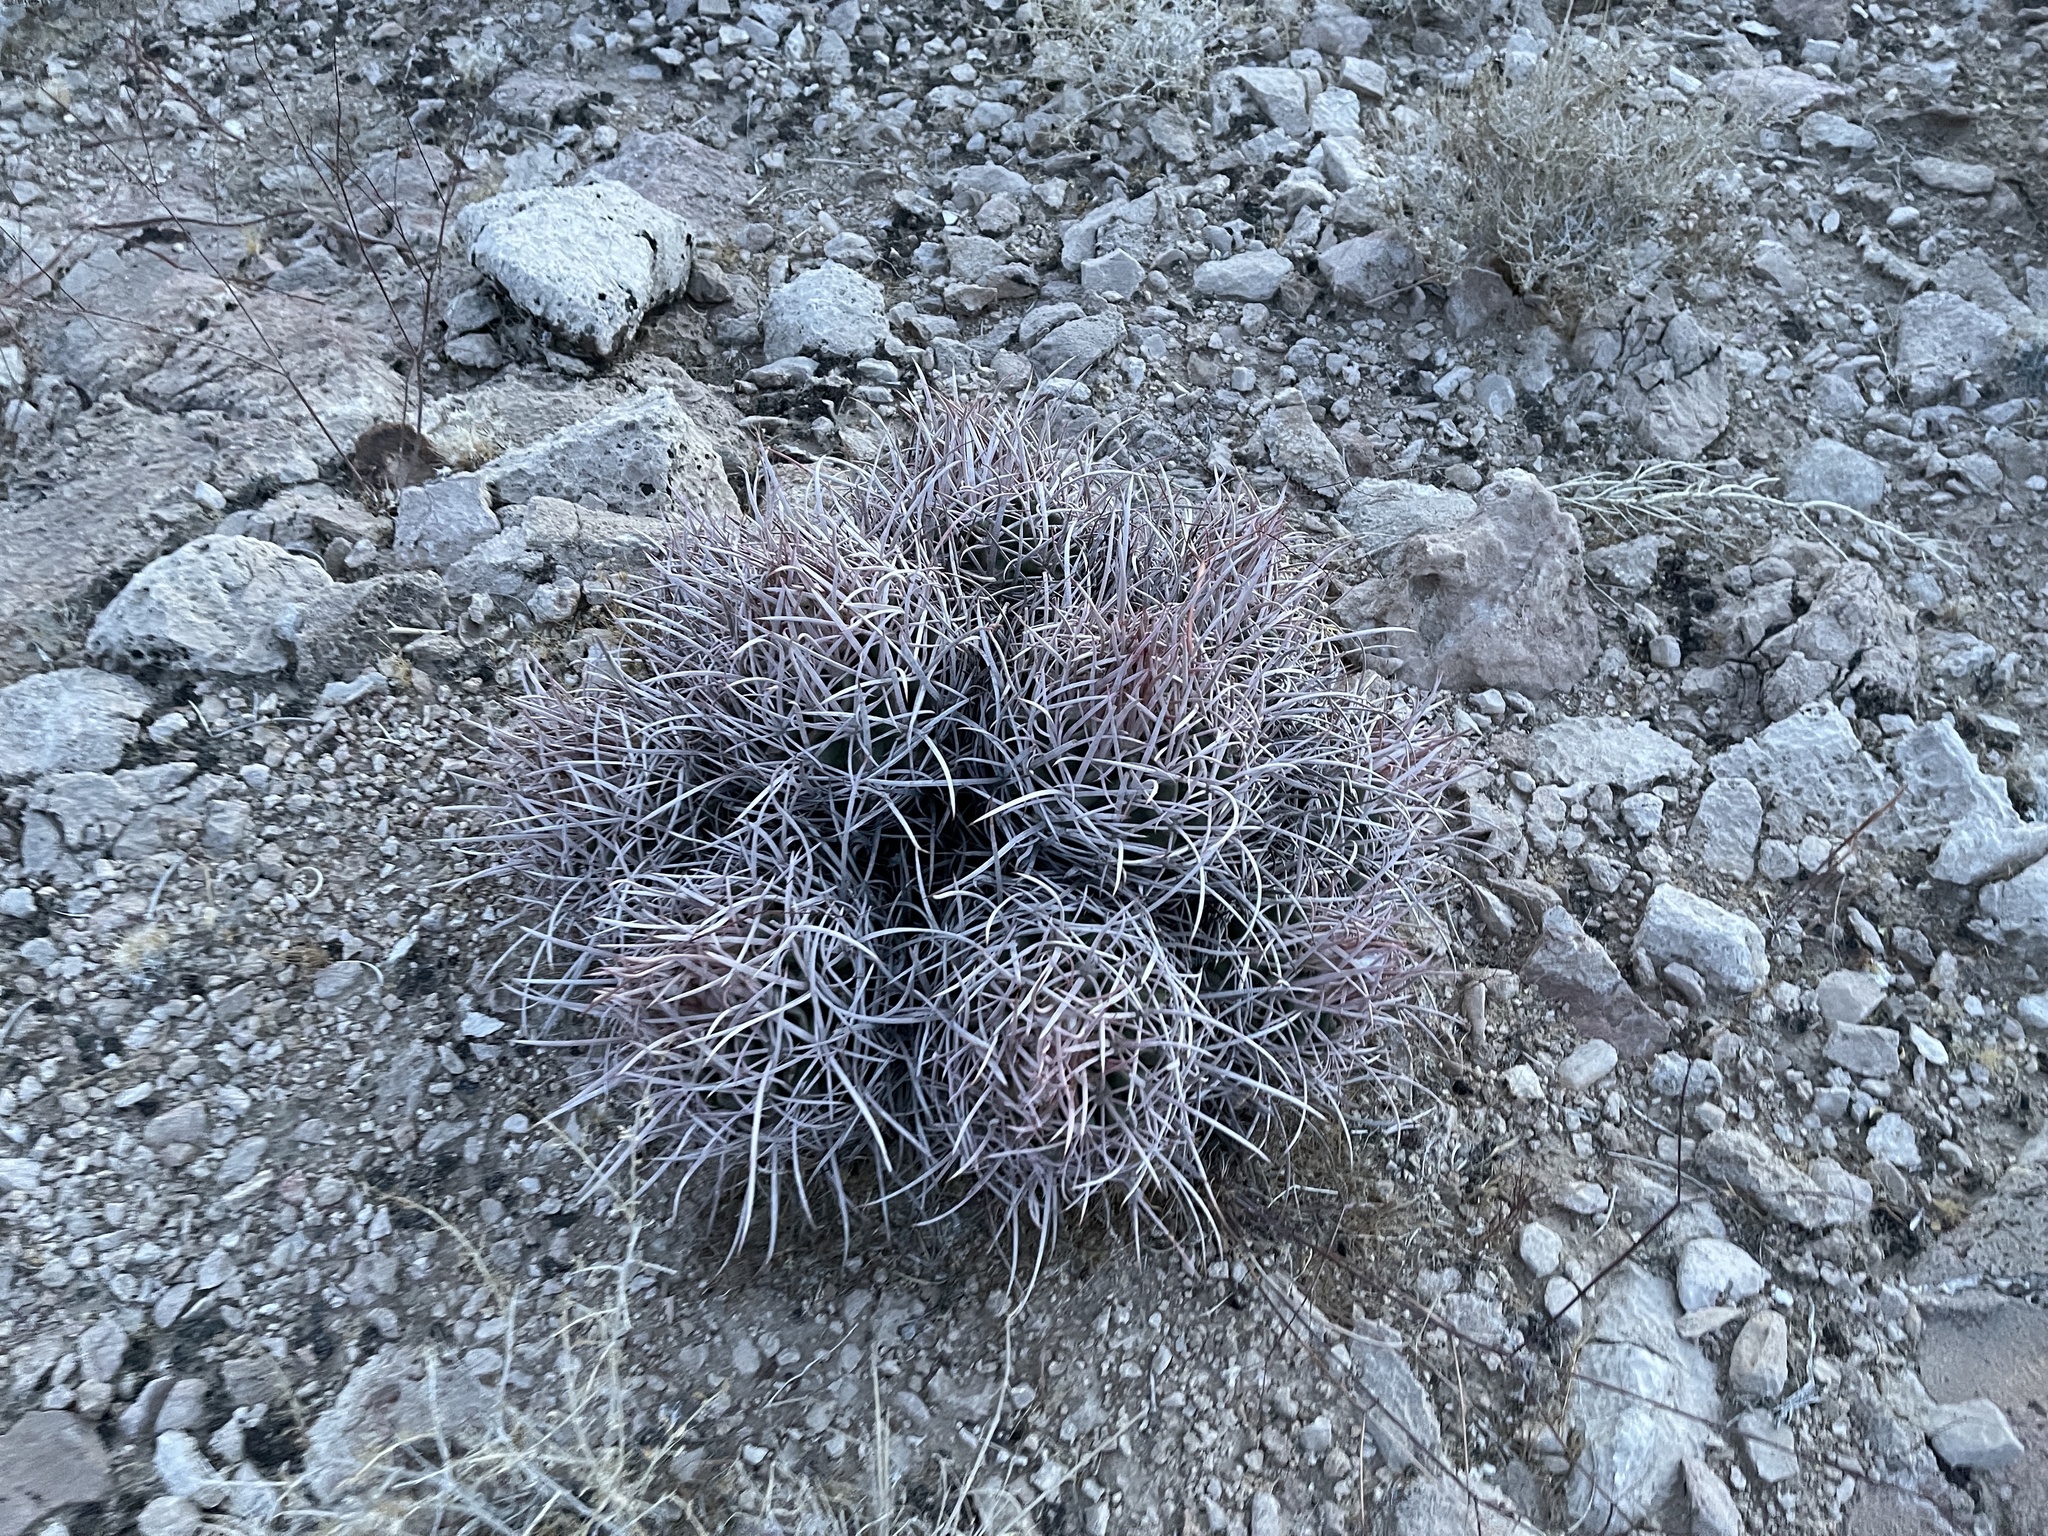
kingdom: Plantae
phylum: Tracheophyta
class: Magnoliopsida
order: Caryophyllales
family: Cactaceae
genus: Echinocactus
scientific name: Echinocactus polycephalus
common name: Cottontop cactus
